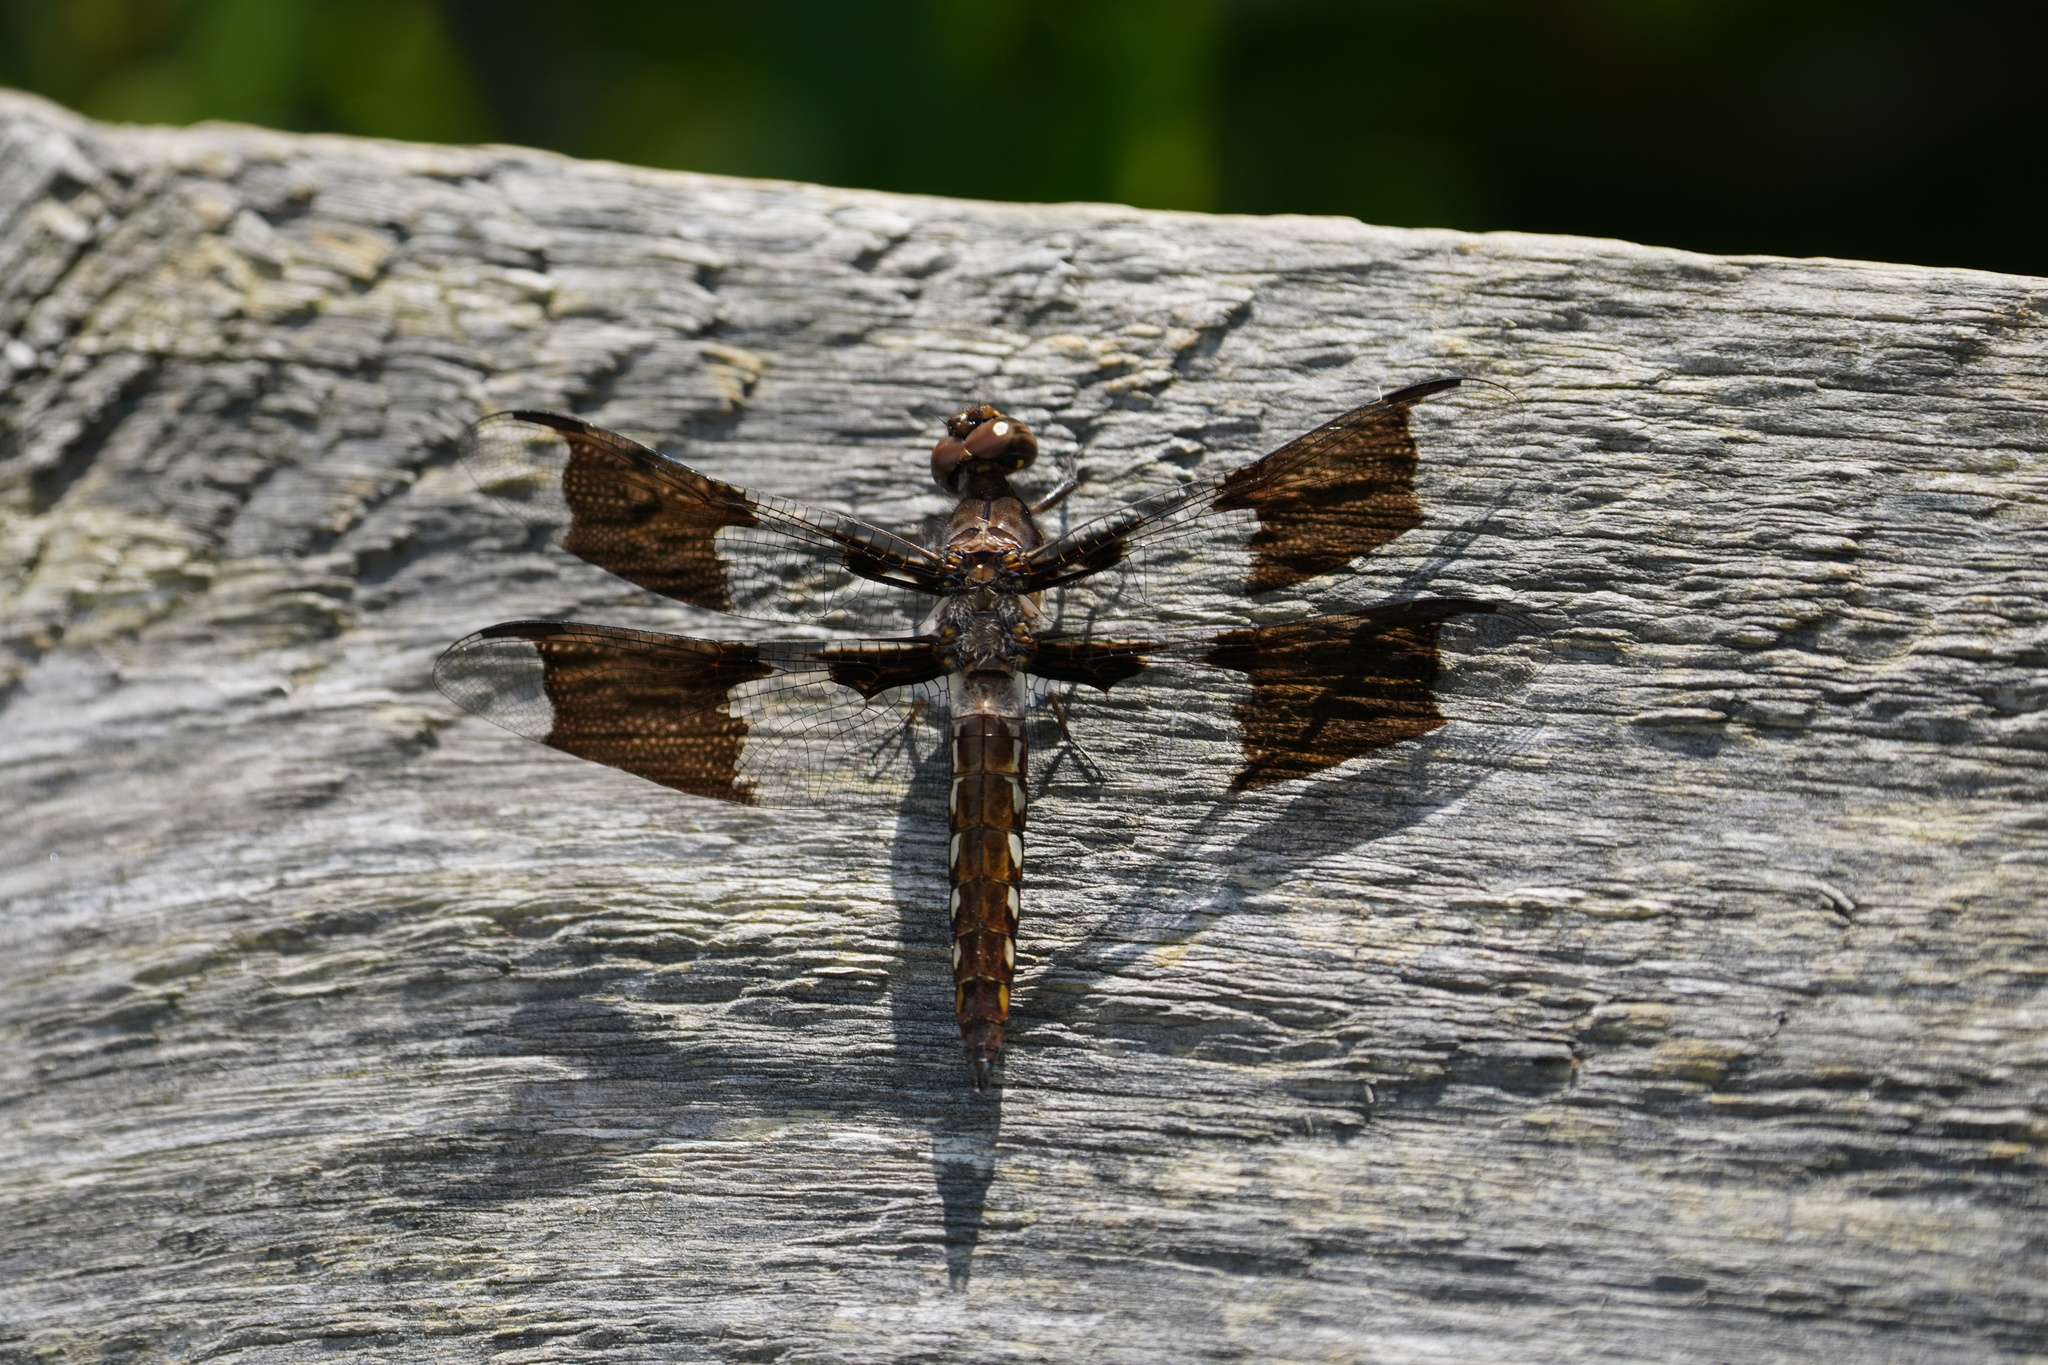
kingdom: Animalia
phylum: Arthropoda
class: Insecta
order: Odonata
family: Libellulidae
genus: Plathemis
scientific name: Plathemis lydia
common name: Common whitetail
